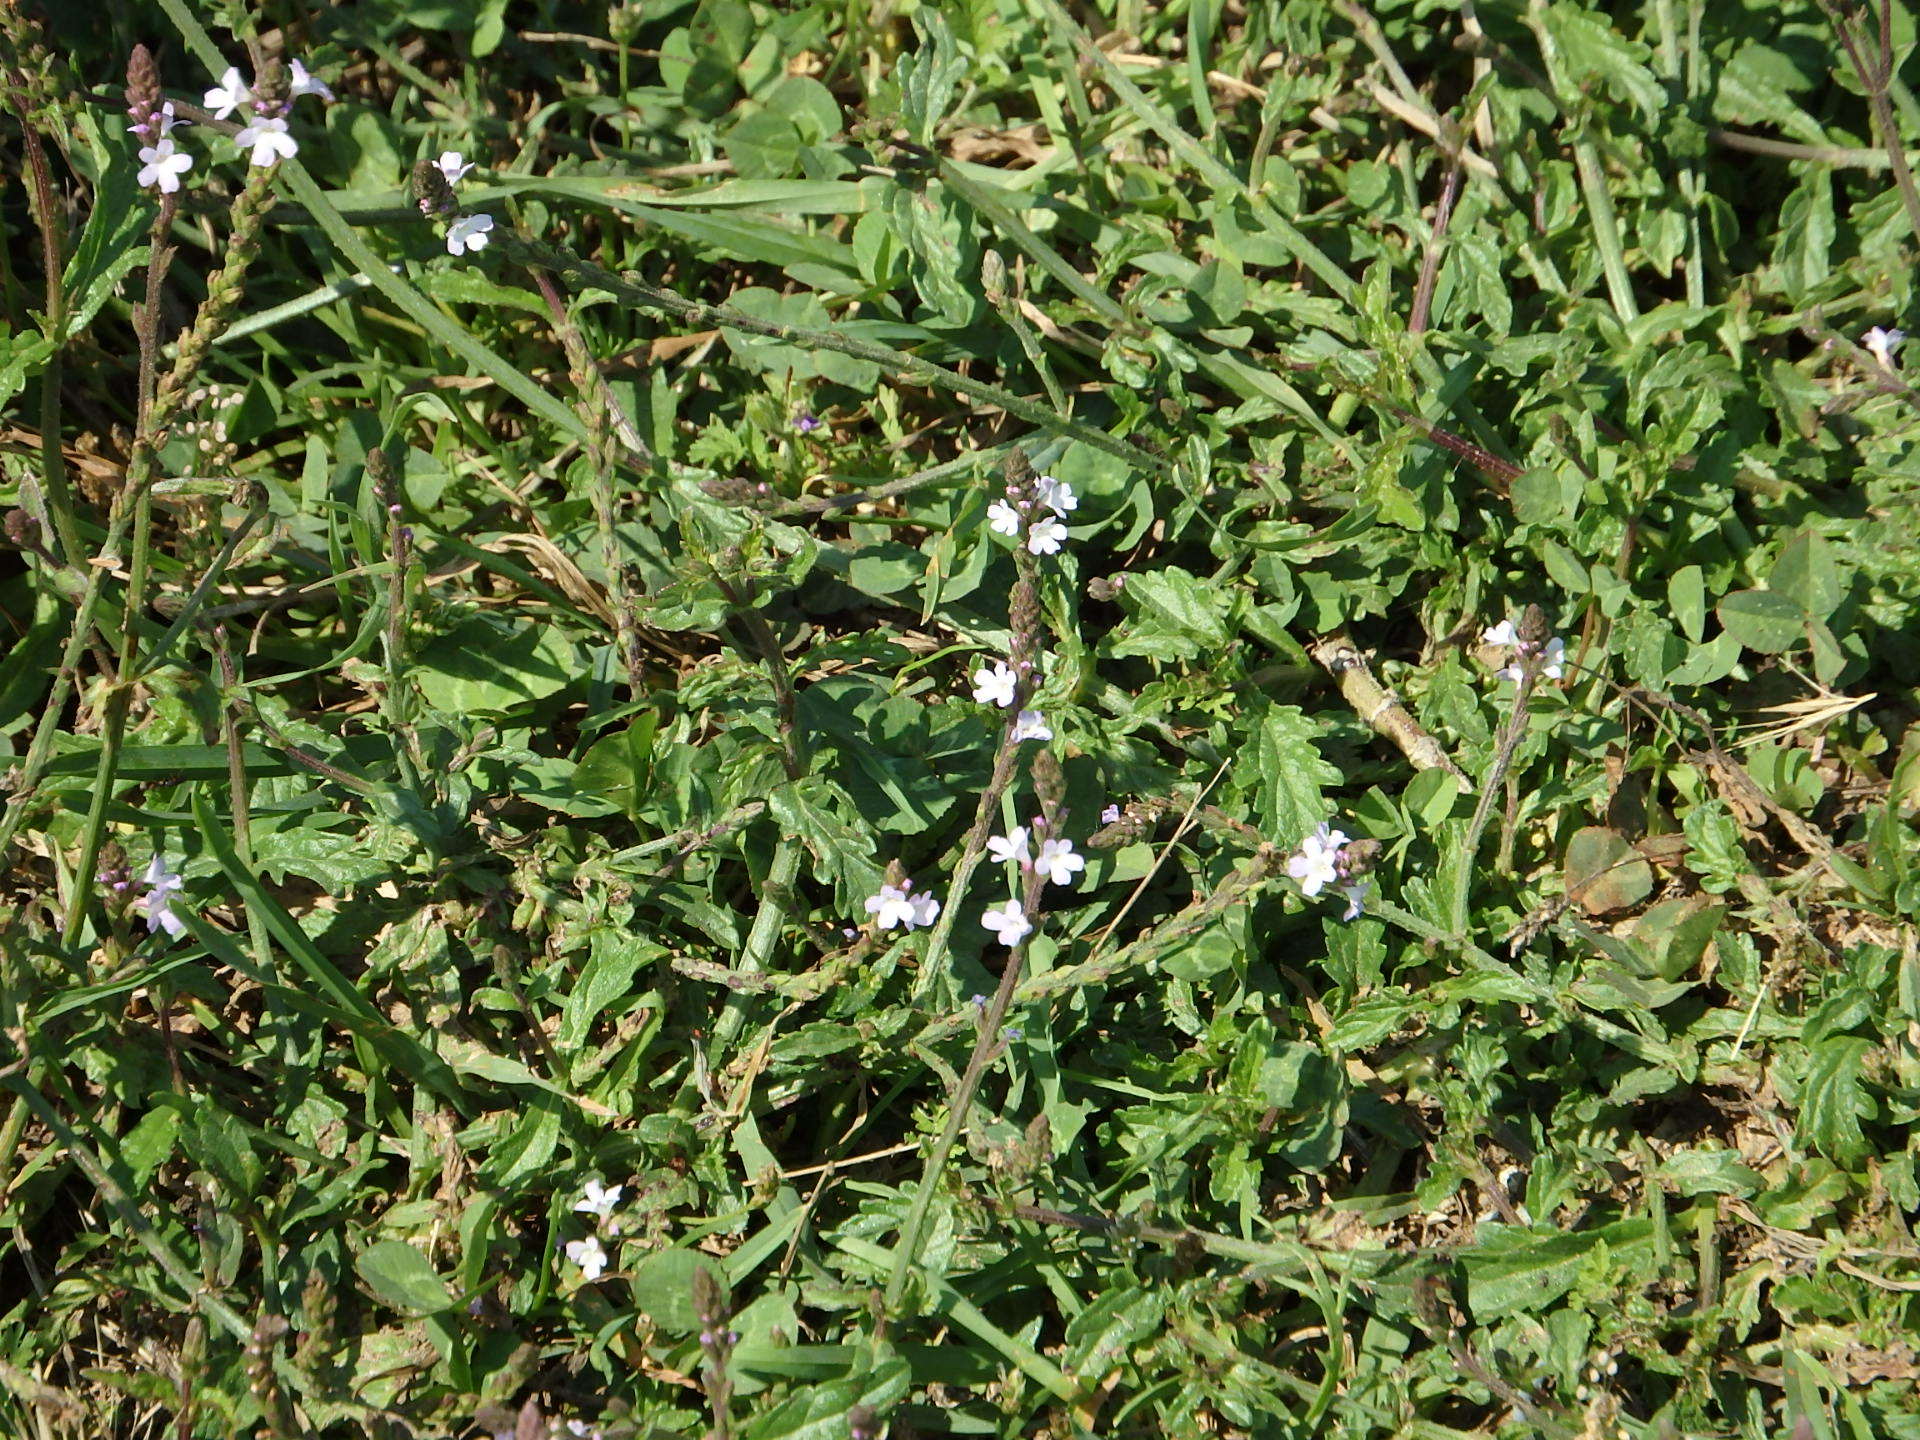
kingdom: Plantae
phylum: Tracheophyta
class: Magnoliopsida
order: Lamiales
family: Verbenaceae
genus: Verbena
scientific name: Verbena officinalis
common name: Vervain
